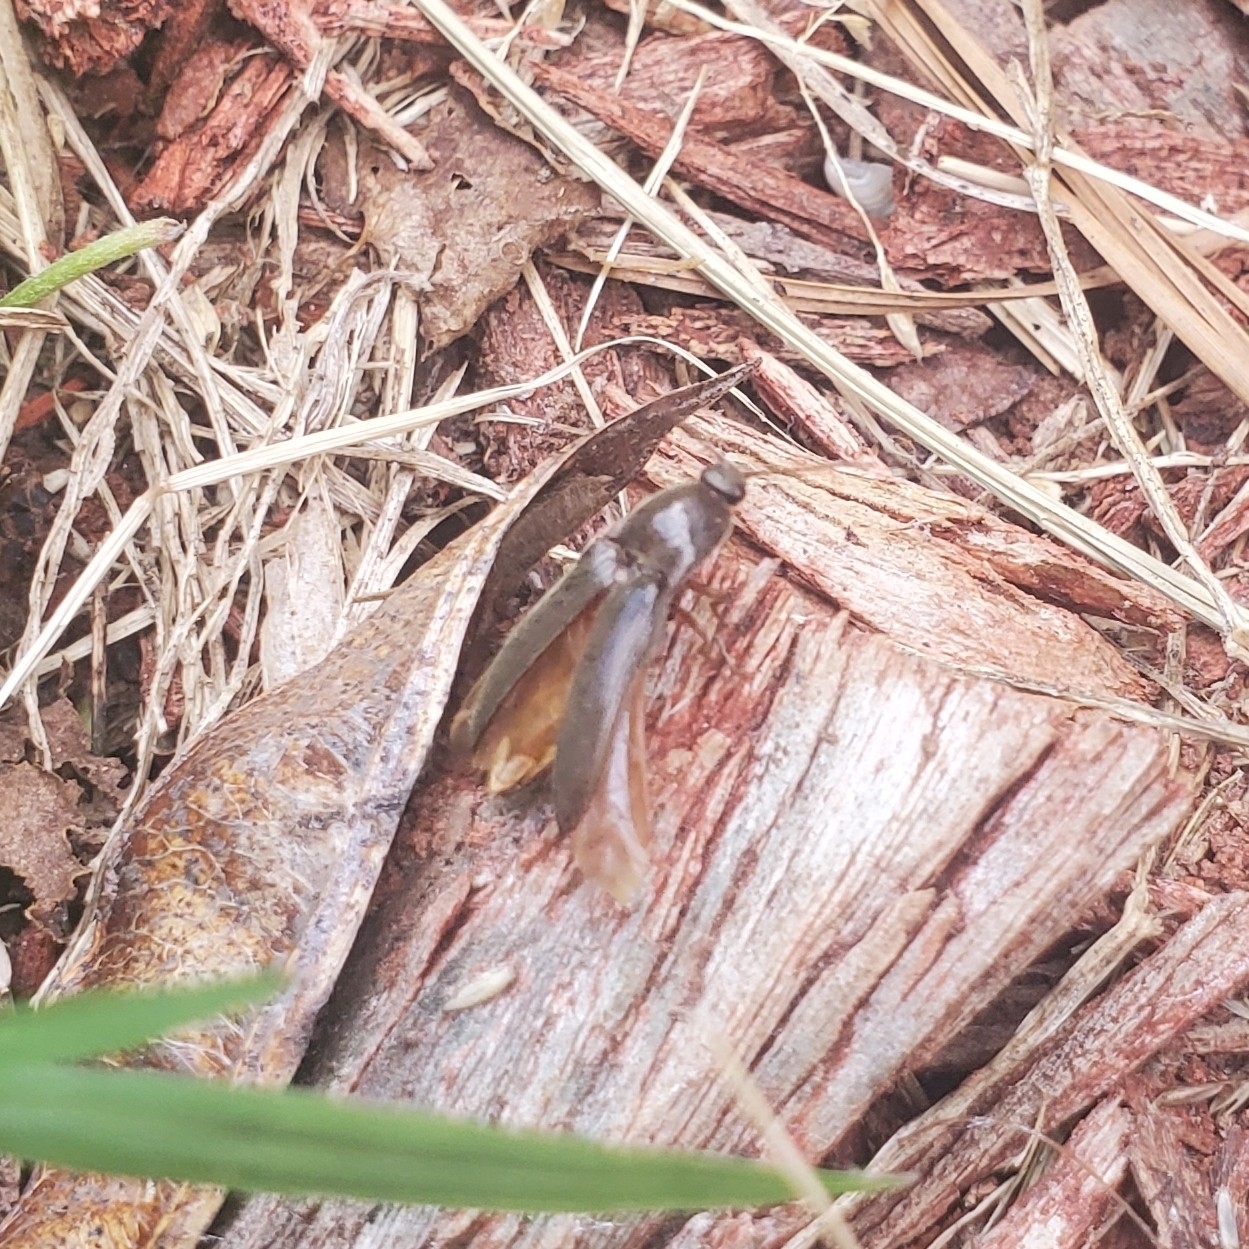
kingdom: Animalia
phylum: Arthropoda
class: Insecta
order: Coleoptera
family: Elateridae
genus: Melanotus
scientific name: Melanotus
